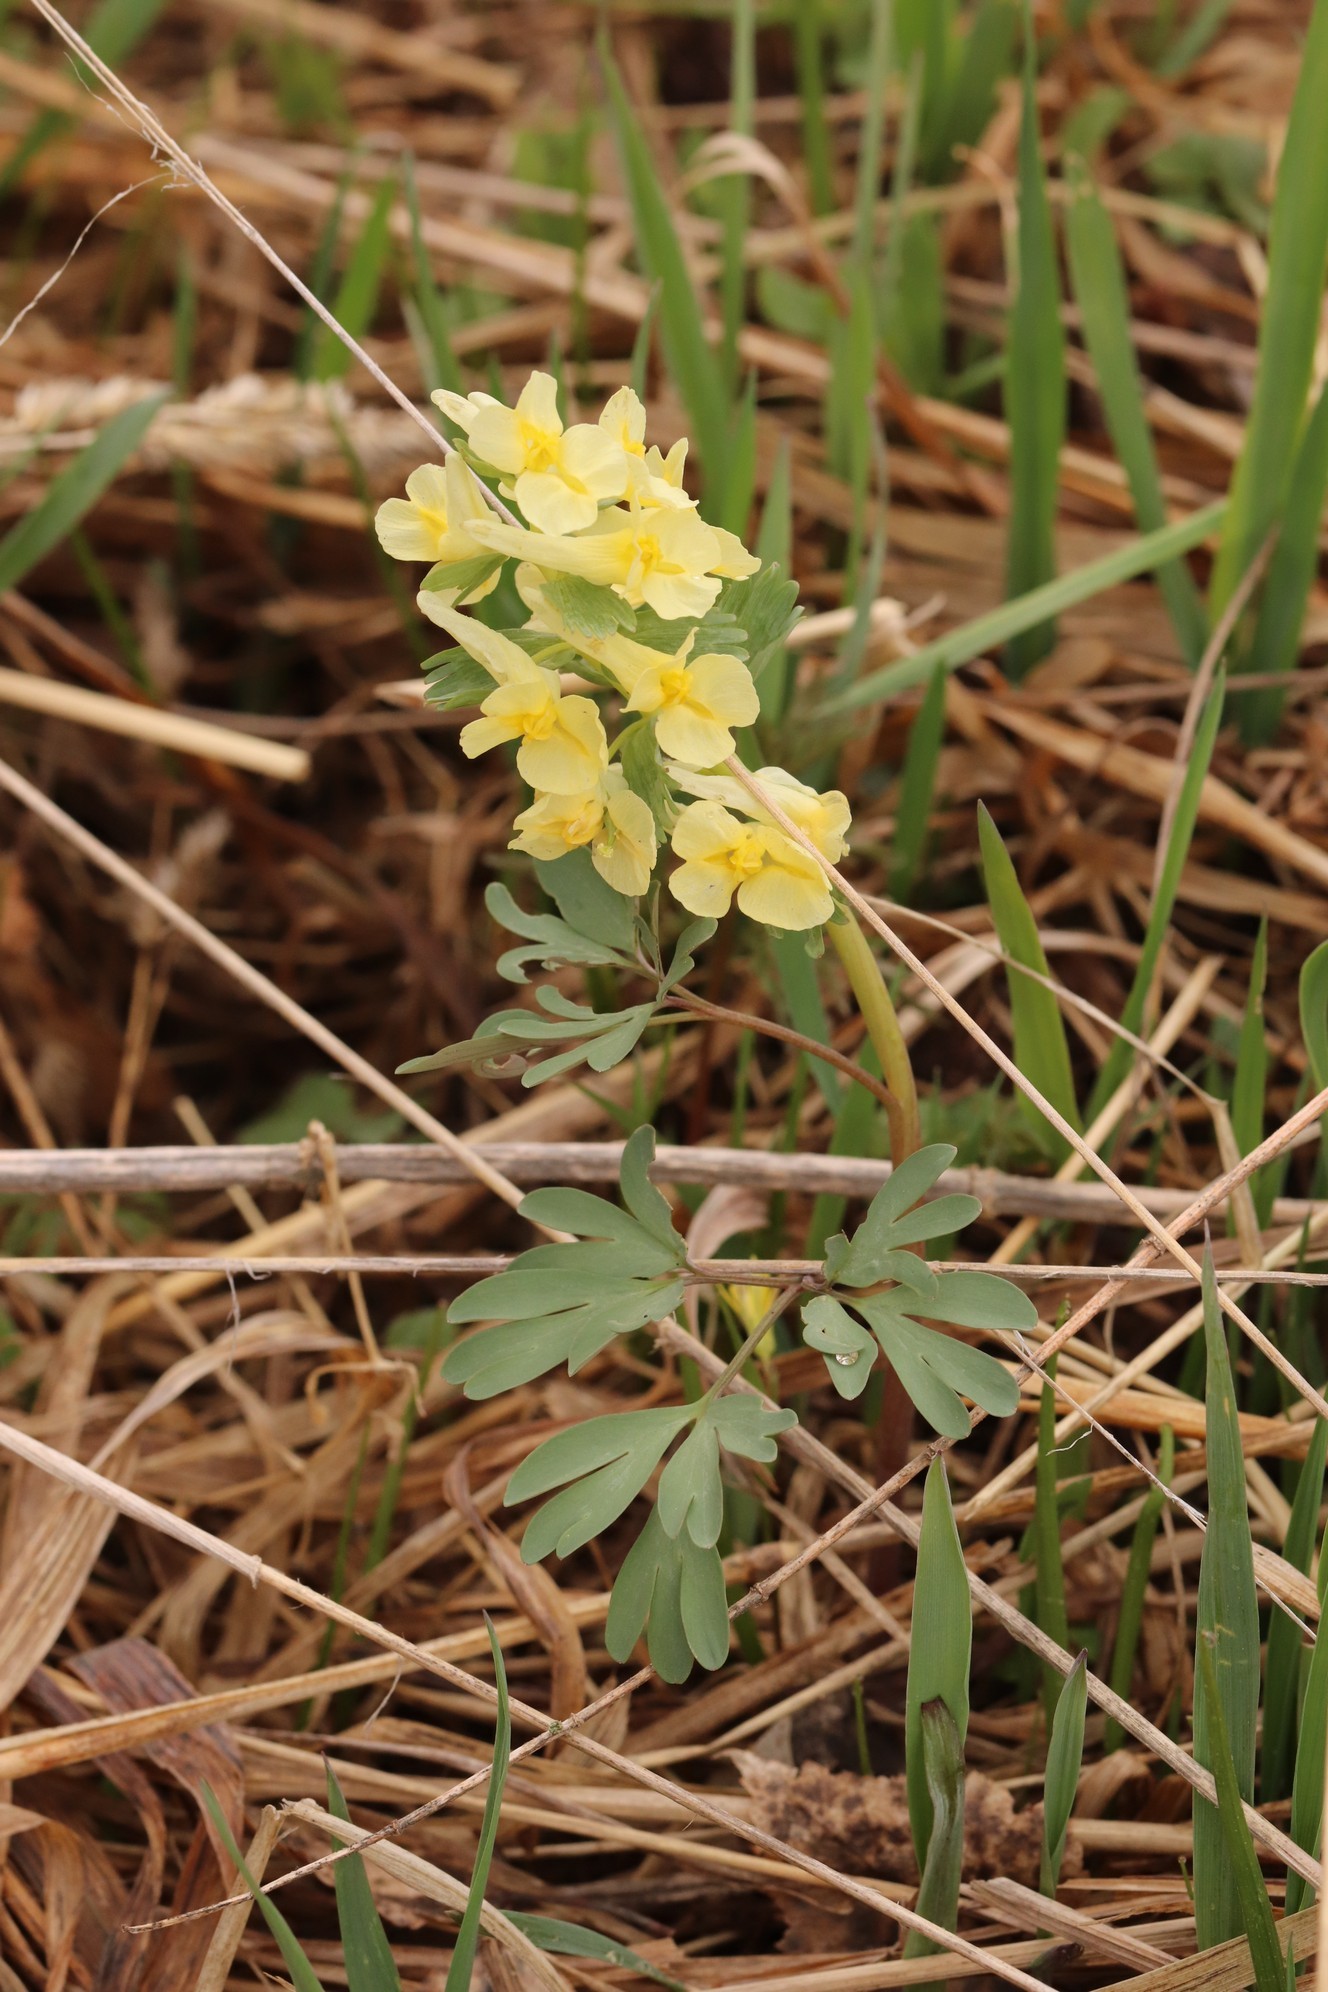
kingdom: Plantae
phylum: Tracheophyta
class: Magnoliopsida
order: Ranunculales
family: Papaveraceae
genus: Corydalis
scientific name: Corydalis bracteata
